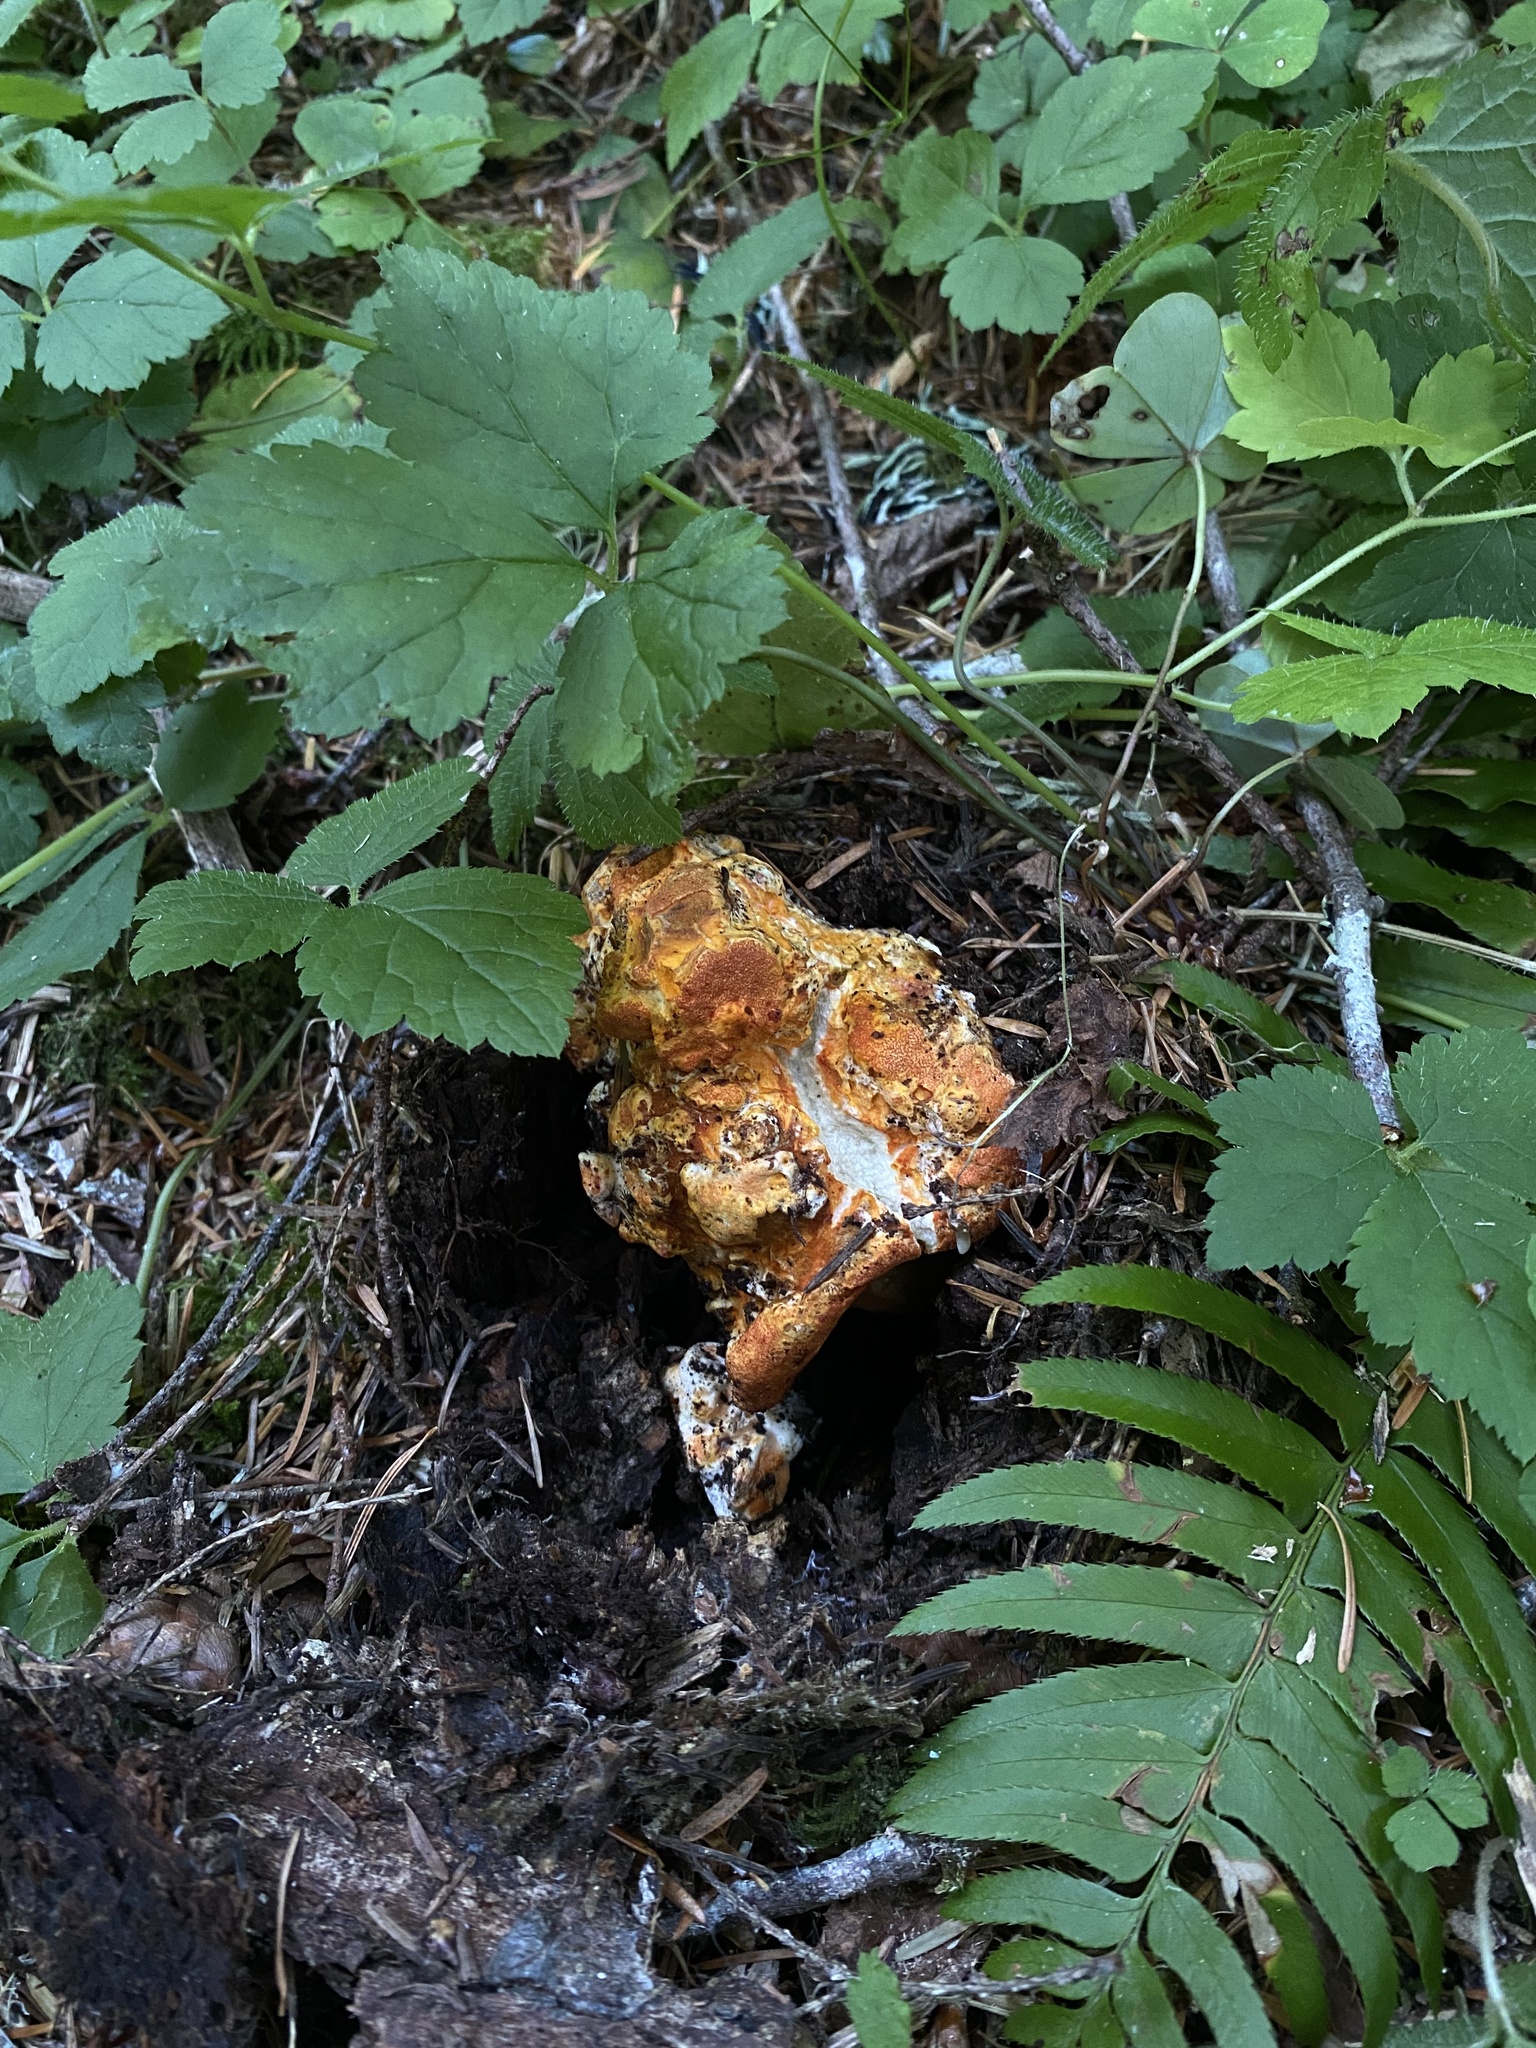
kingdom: Fungi
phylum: Ascomycota
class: Sordariomycetes
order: Hypocreales
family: Hypocreaceae
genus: Hypomyces
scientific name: Hypomyces lactifluorum
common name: Lobster mushroom
